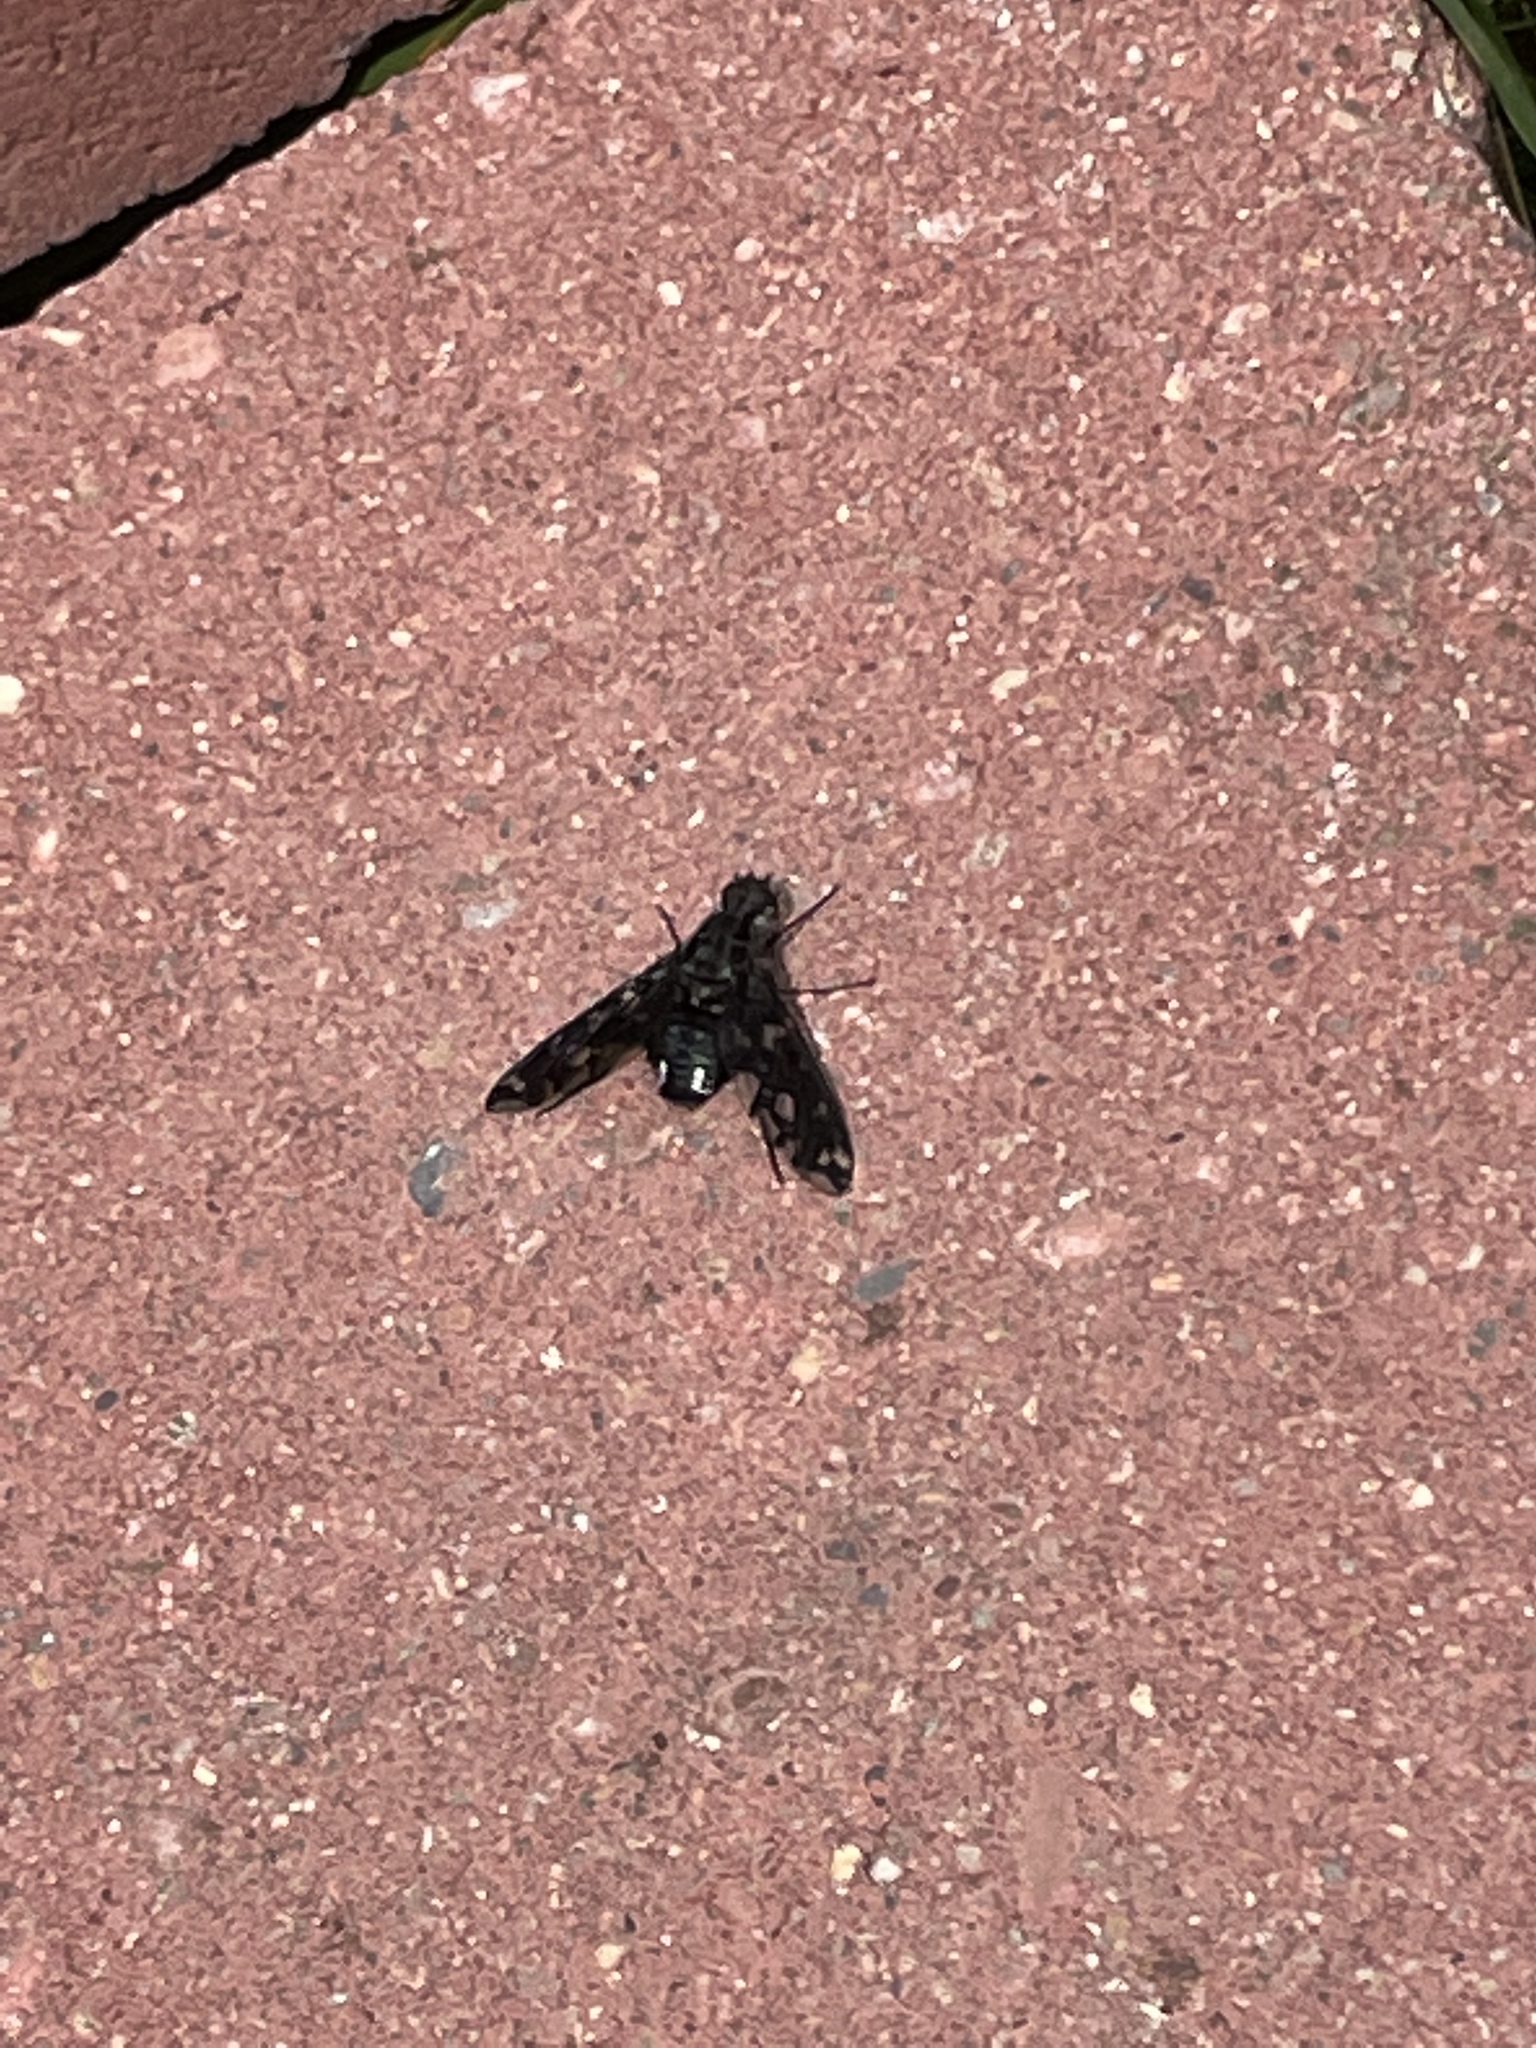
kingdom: Animalia
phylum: Arthropoda
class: Insecta
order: Diptera
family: Bombyliidae
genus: Xenox
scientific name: Xenox tigrinus
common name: Tiger bee fly
